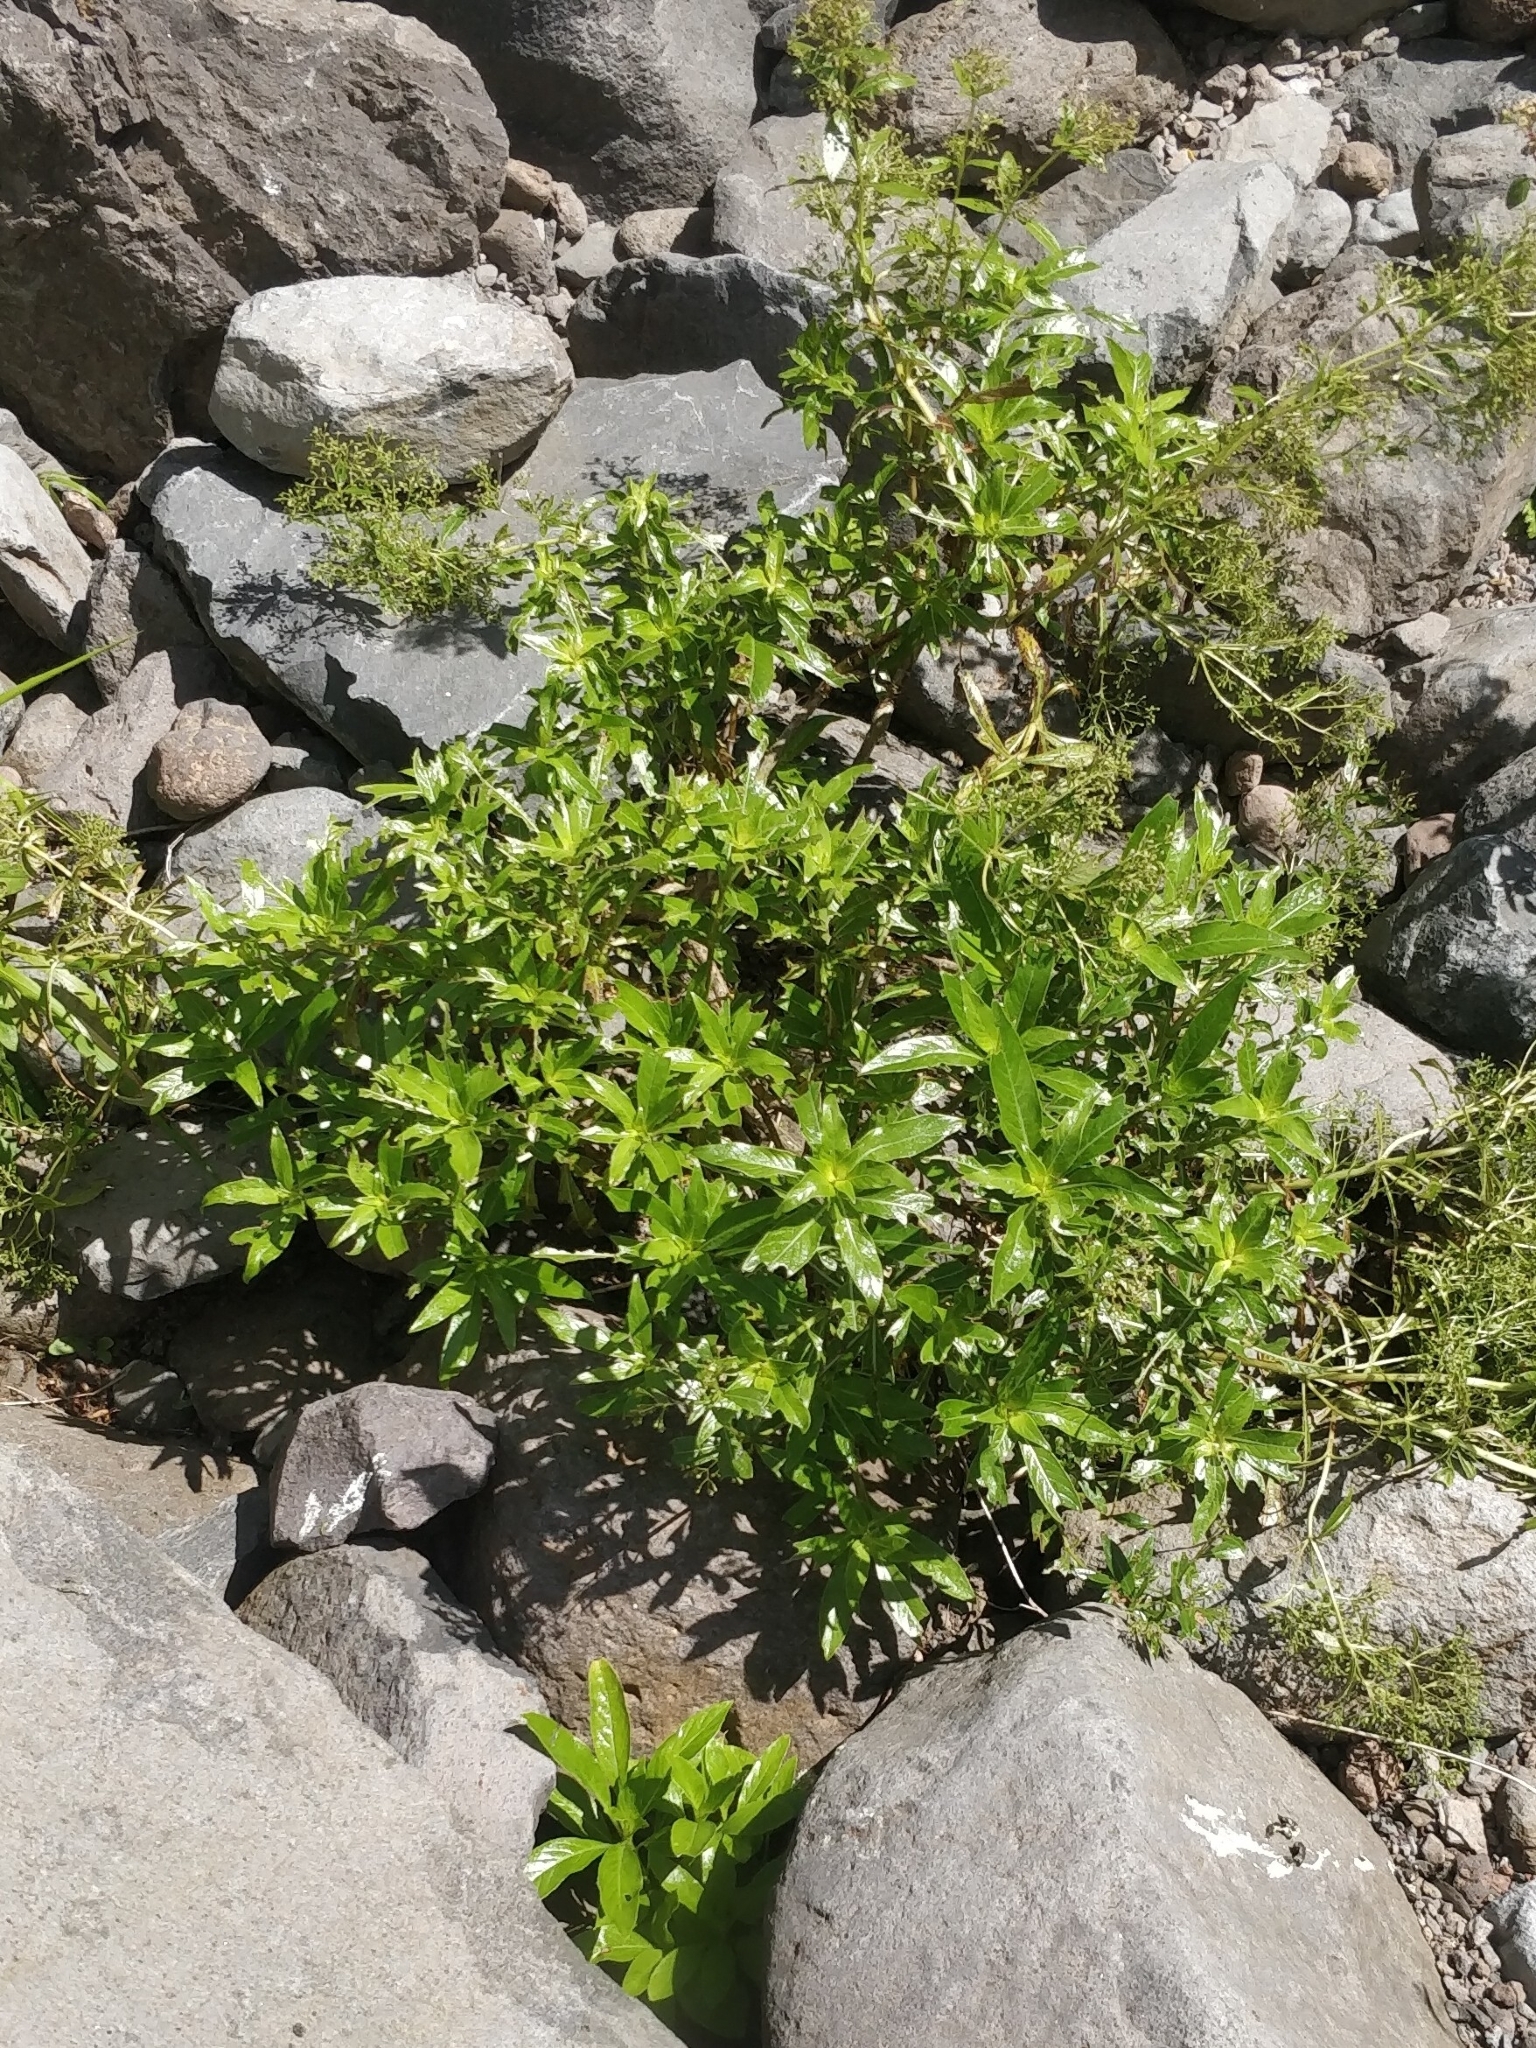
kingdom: Plantae
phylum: Tracheophyta
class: Magnoliopsida
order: Gentianales
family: Rubiaceae
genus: Phyllis
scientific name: Phyllis nobla
